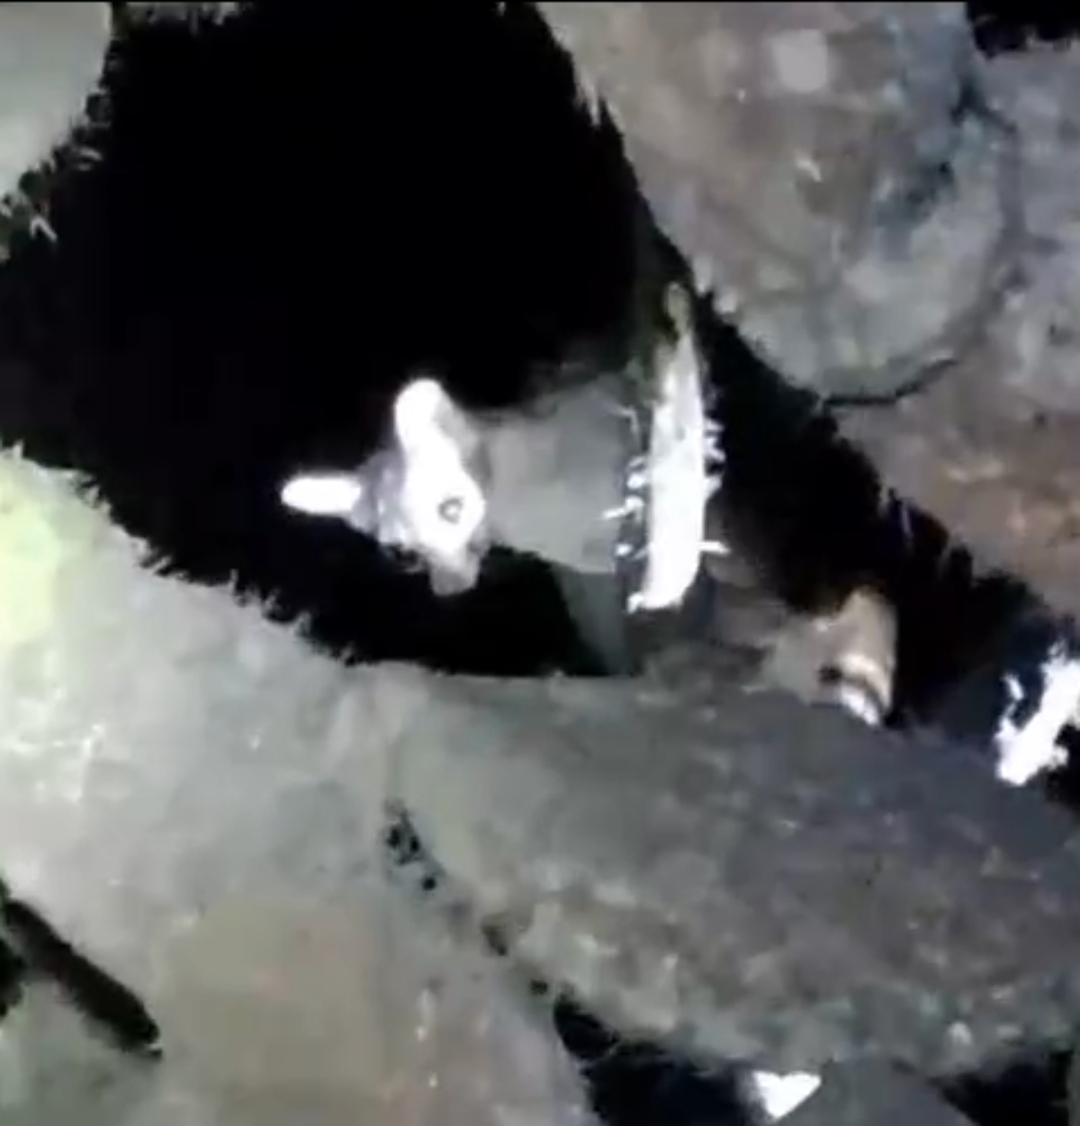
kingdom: Animalia
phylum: Chordata
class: Mammalia
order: Carnivora
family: Procyonidae
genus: Bassariscus
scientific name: Bassariscus astutus
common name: Ringtail
